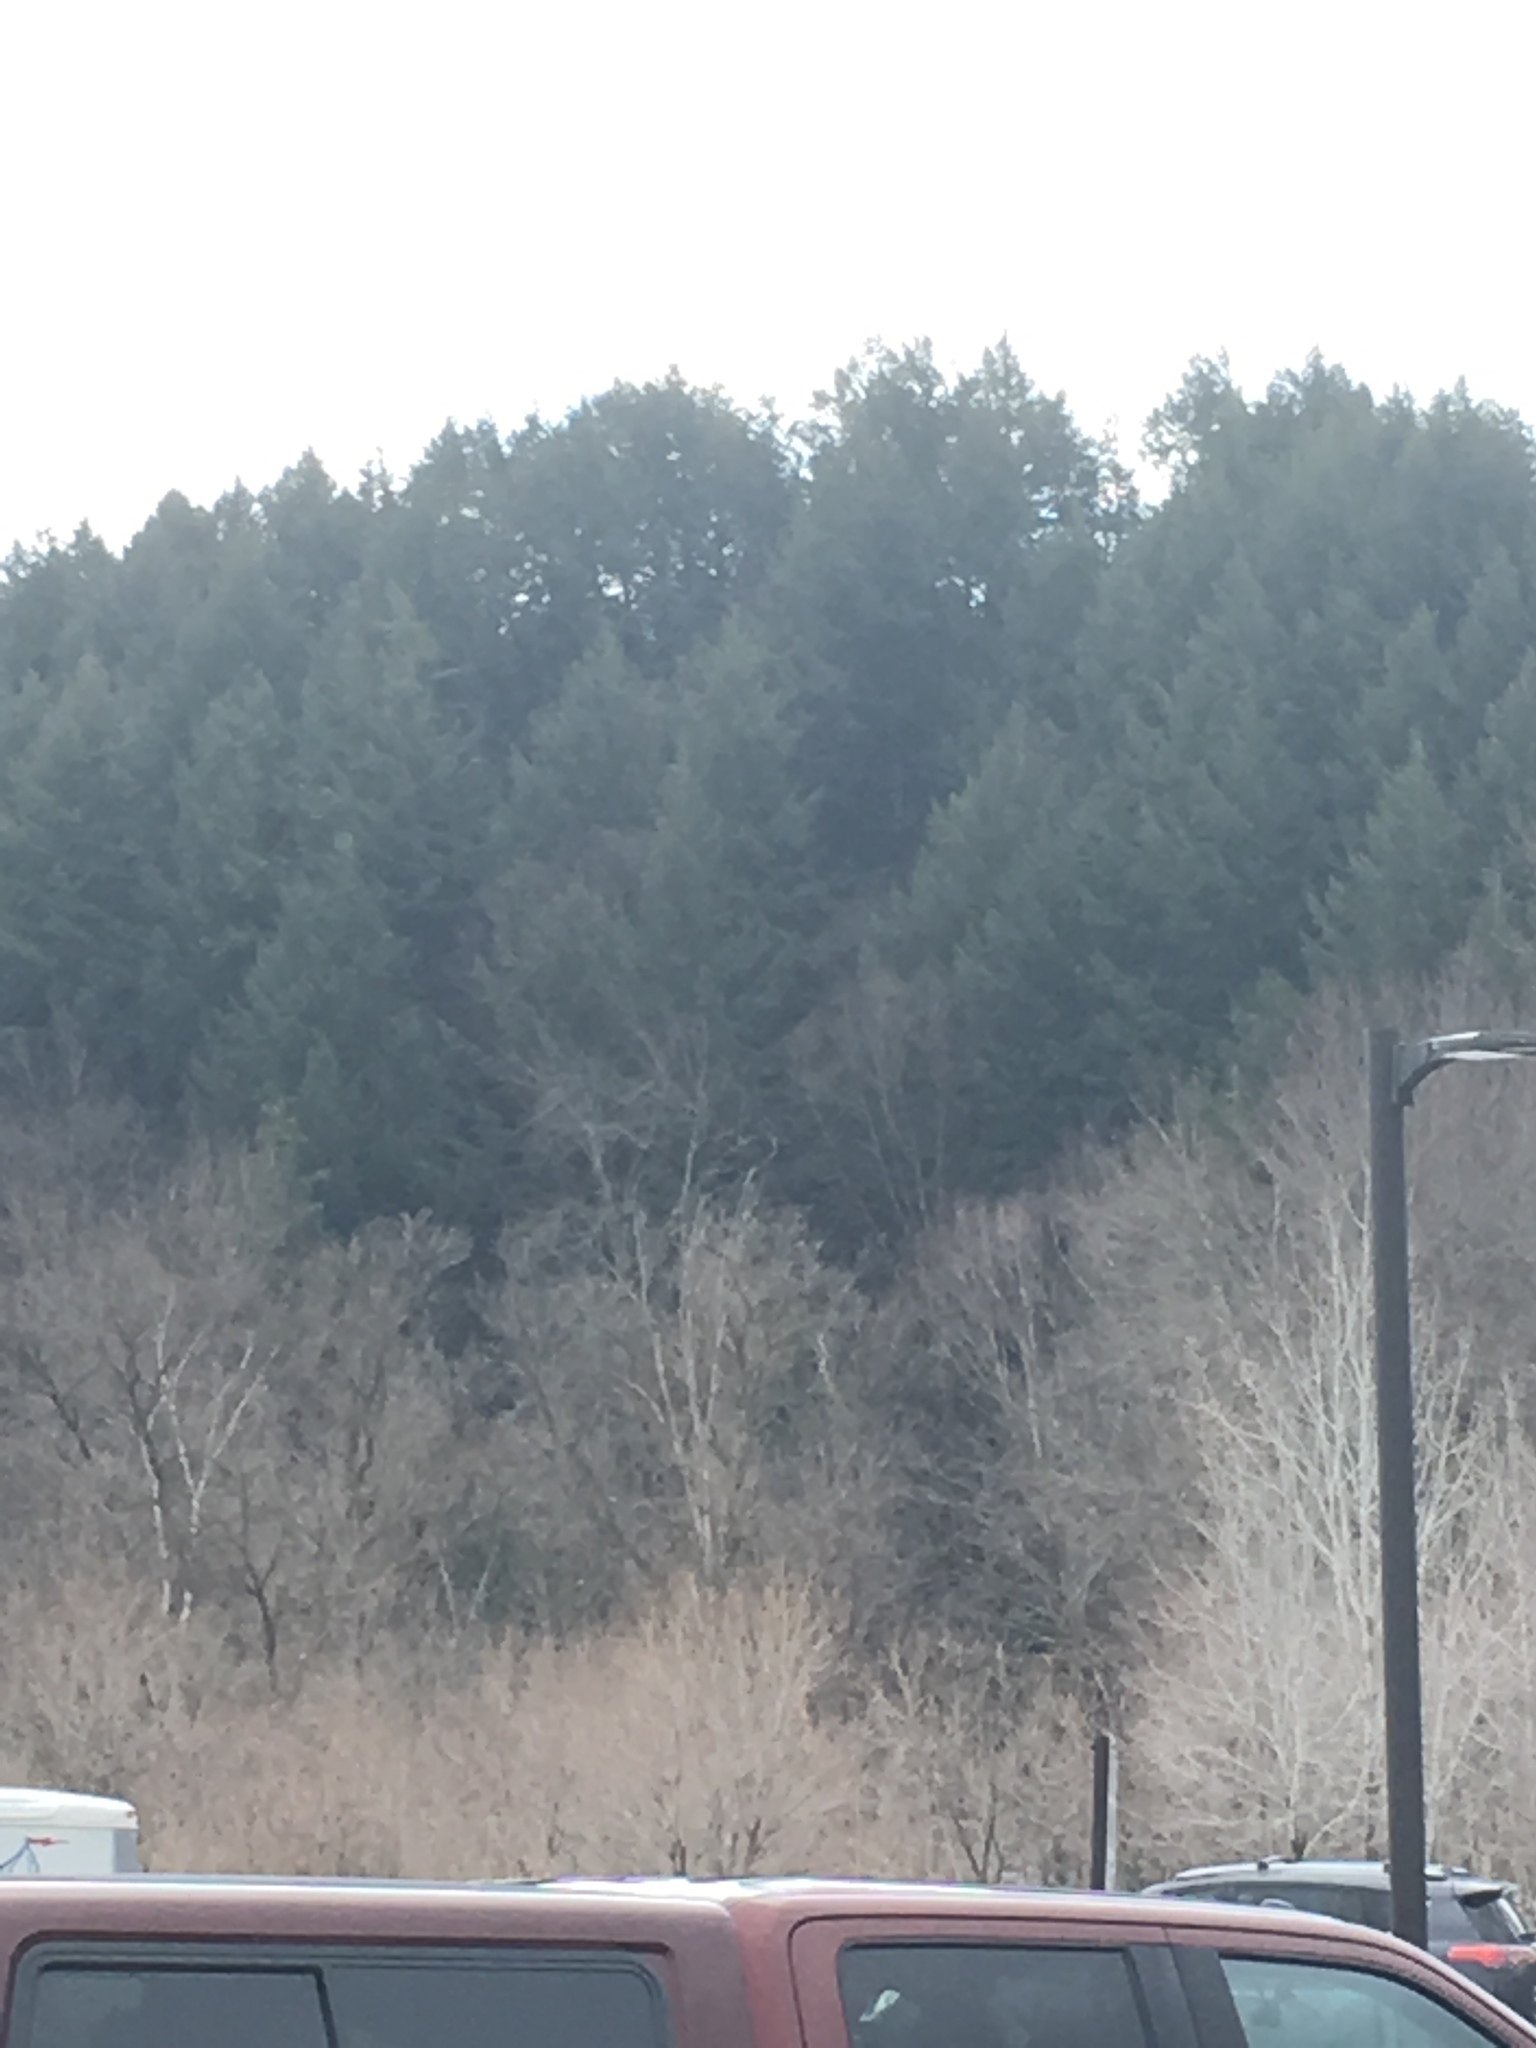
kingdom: Plantae
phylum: Tracheophyta
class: Pinopsida
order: Pinales
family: Pinaceae
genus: Tsuga
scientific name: Tsuga canadensis
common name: Eastern hemlock
